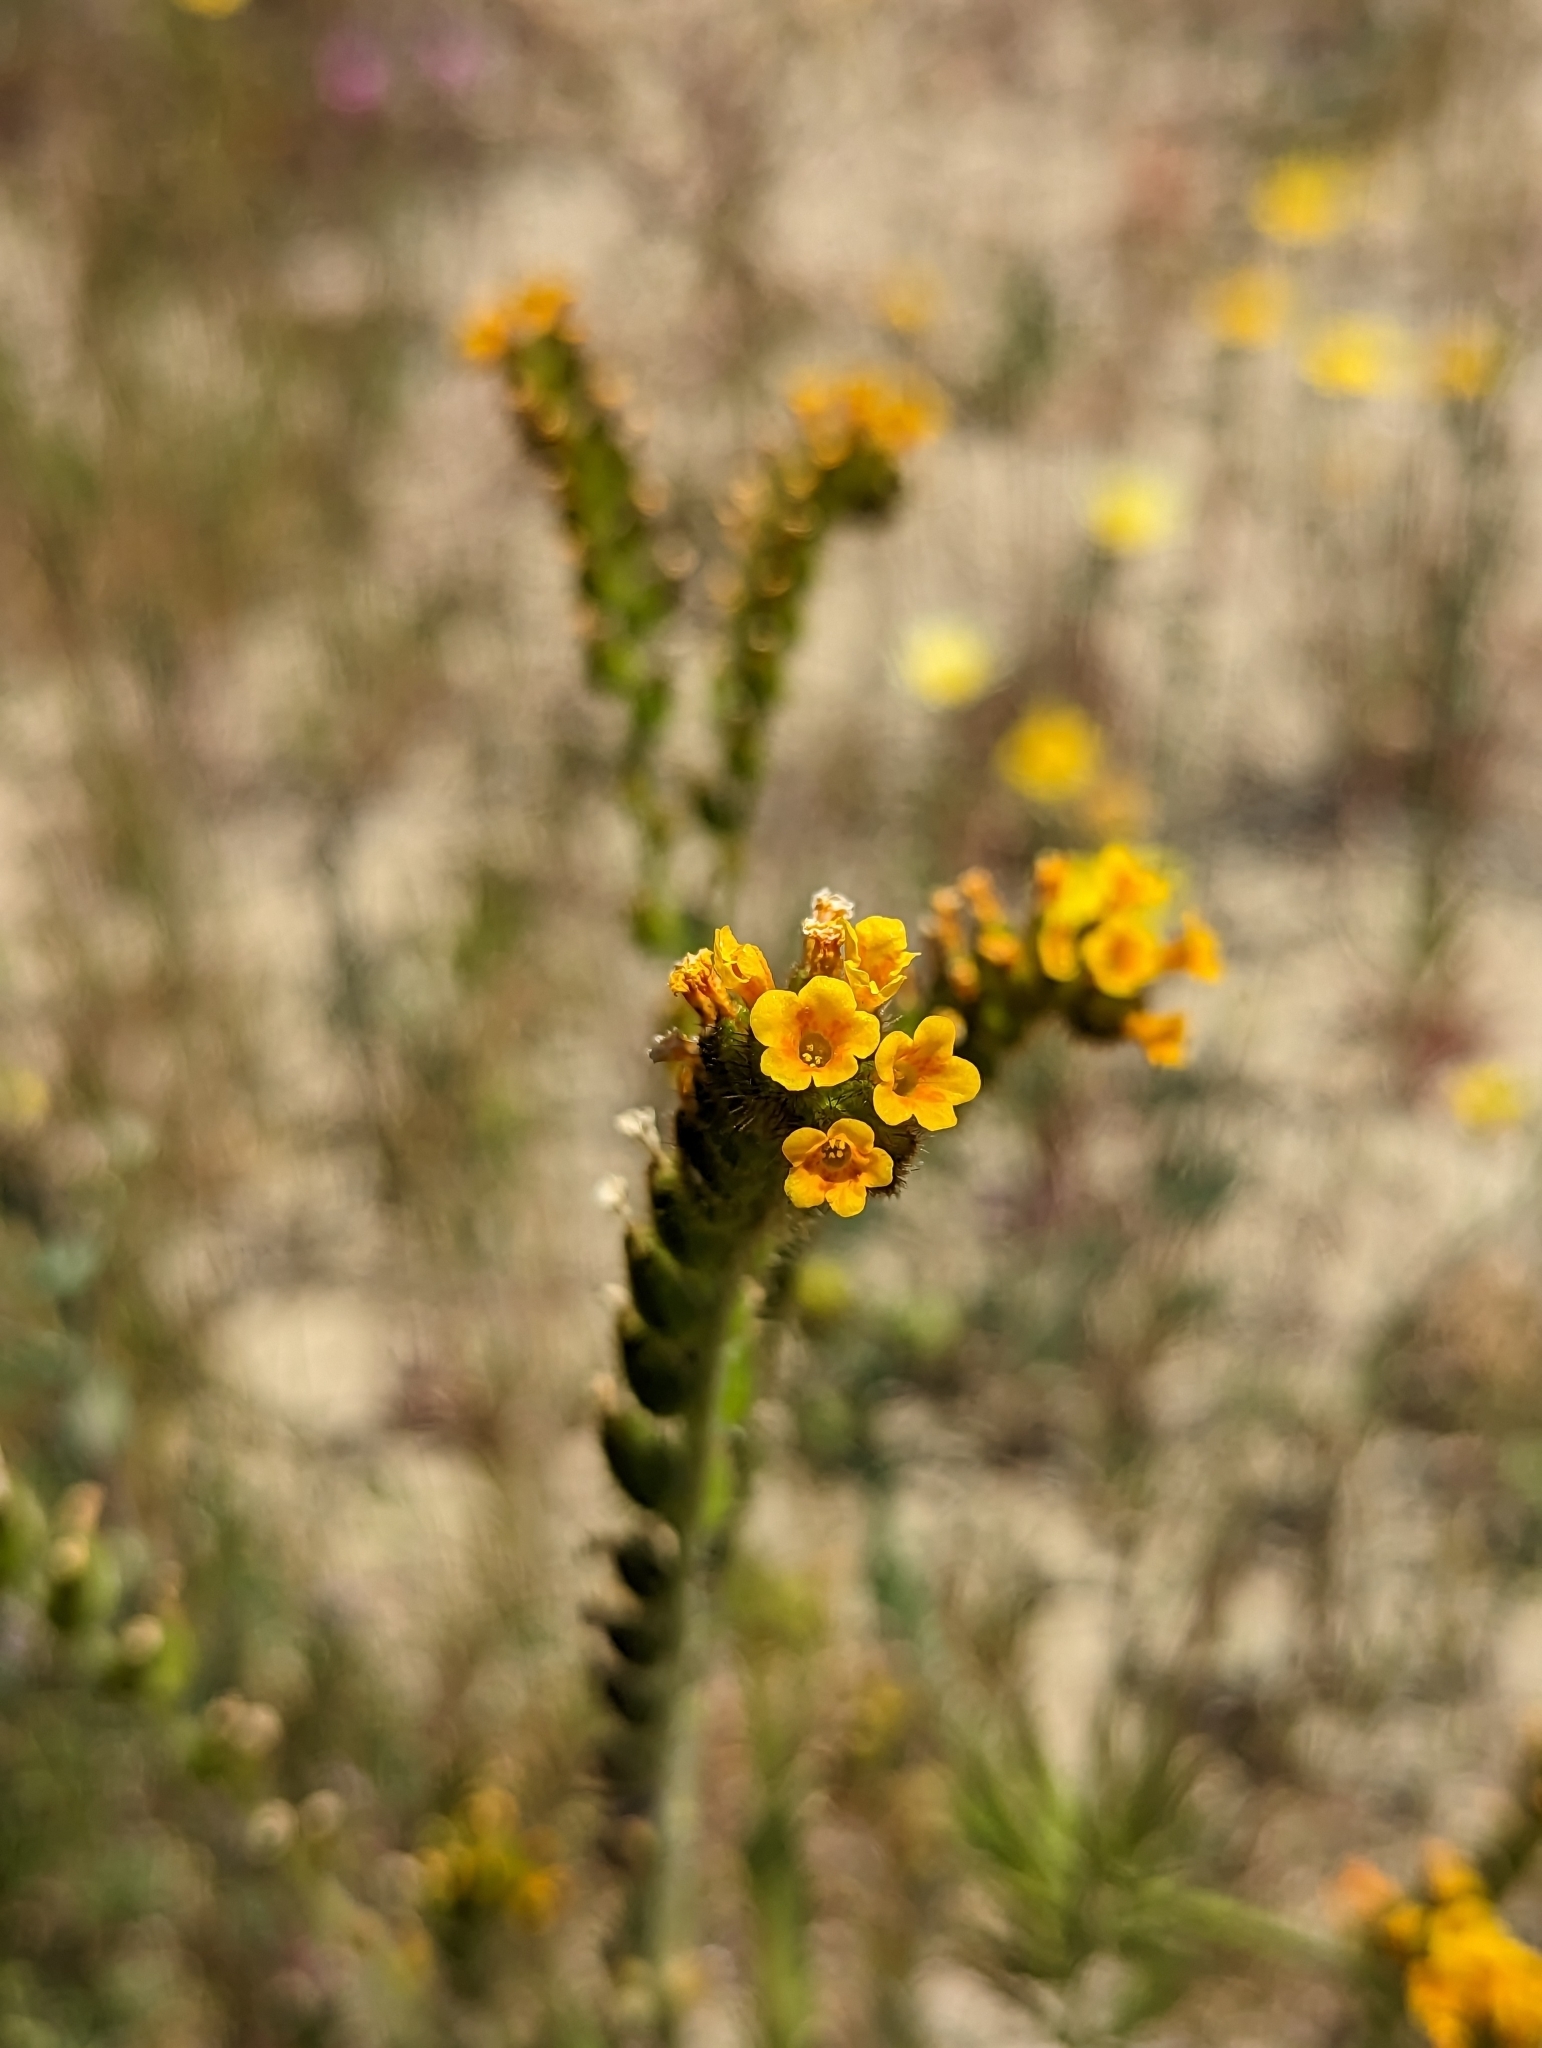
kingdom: Plantae
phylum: Tracheophyta
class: Magnoliopsida
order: Boraginales
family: Boraginaceae
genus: Amsinckia
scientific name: Amsinckia menziesii
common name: Menzies' fiddleneck
